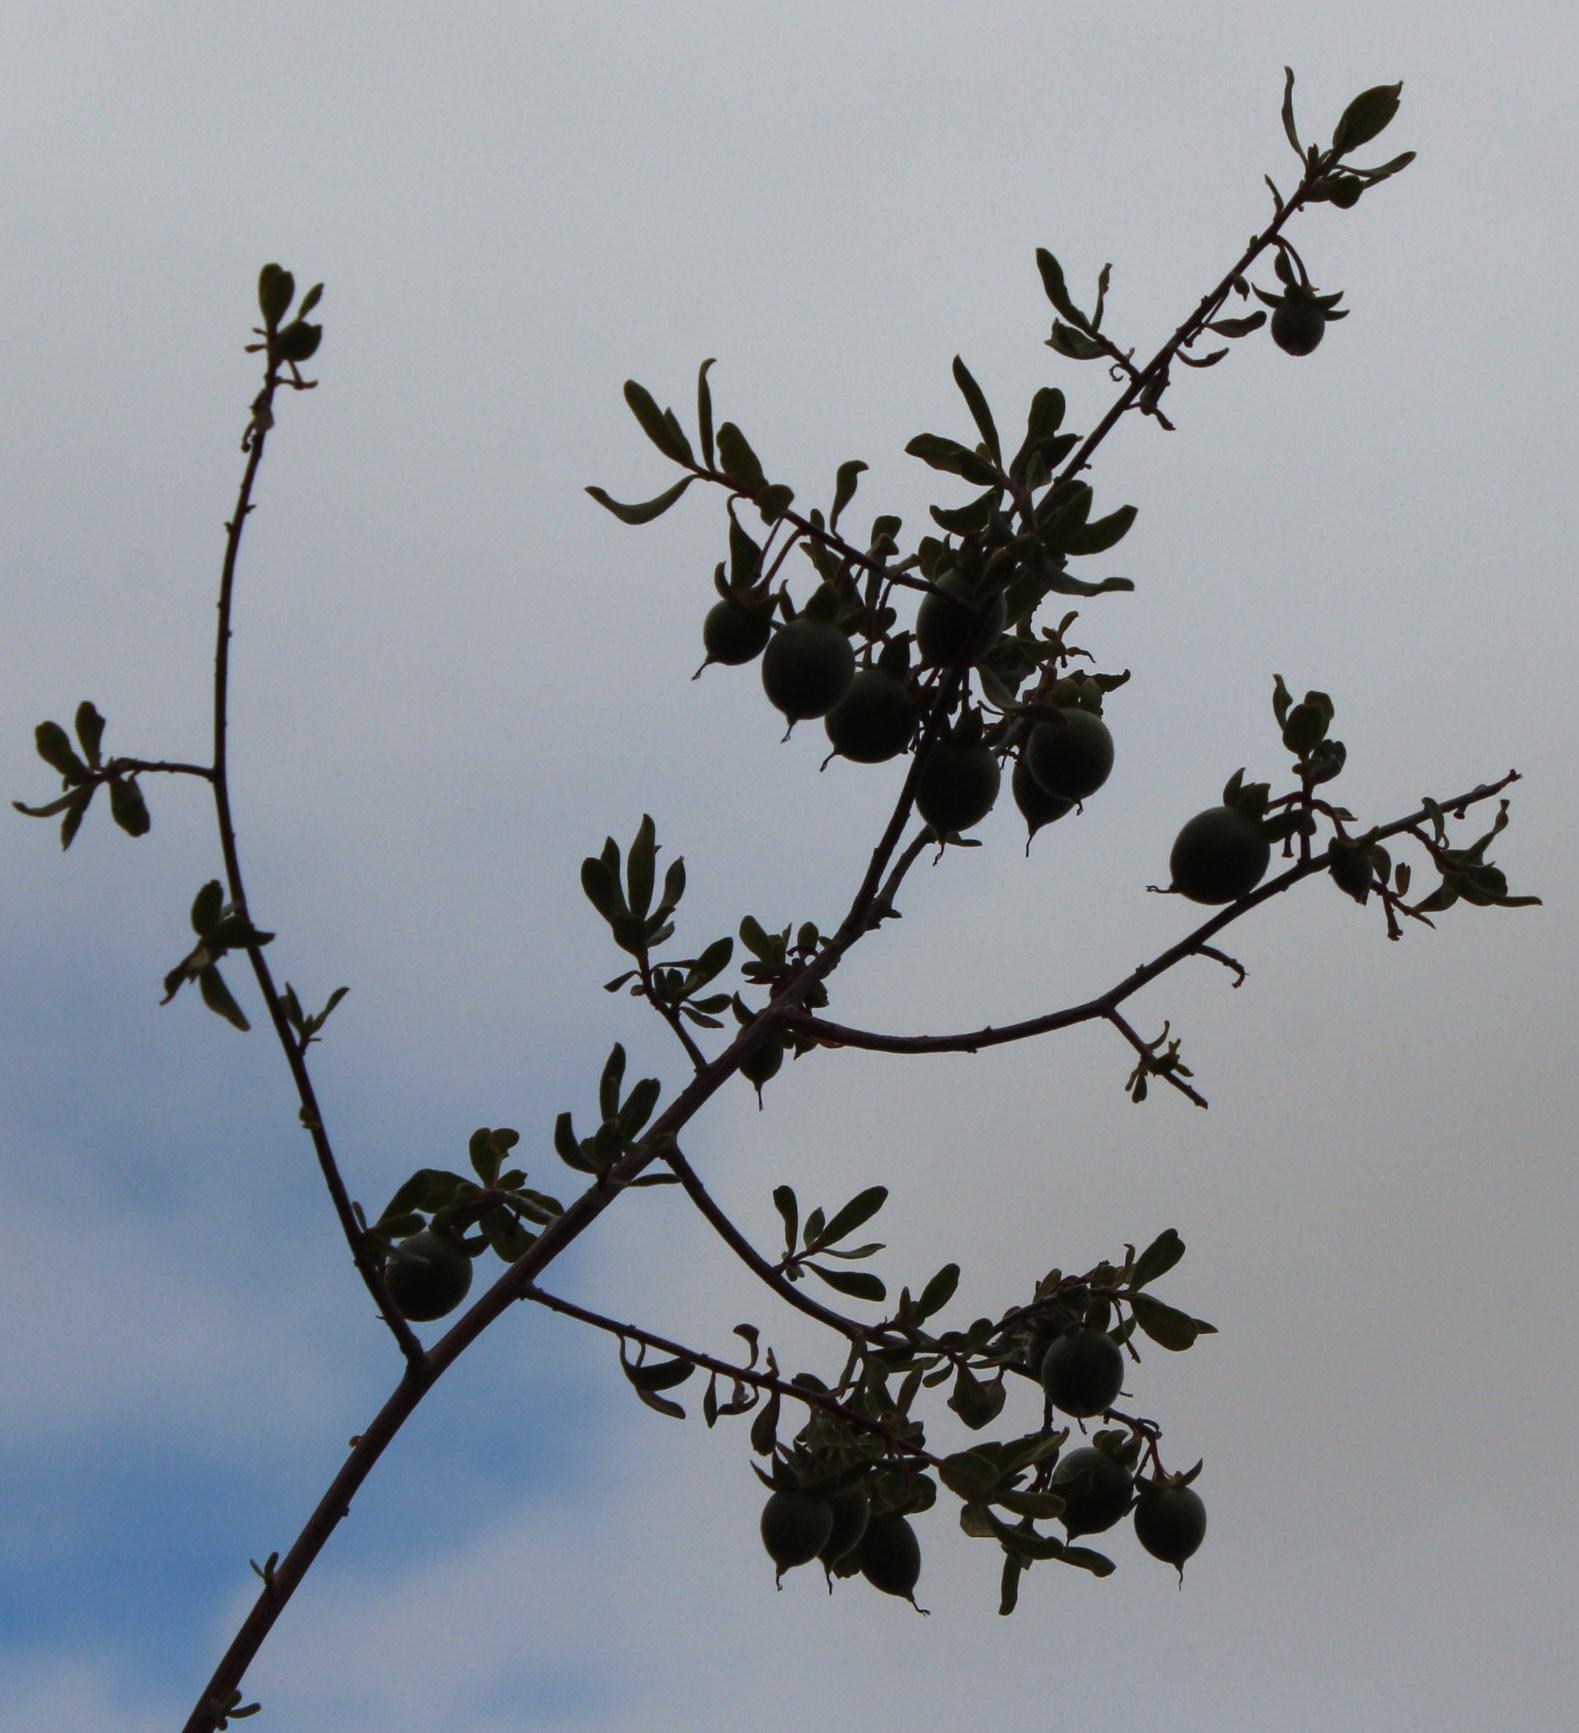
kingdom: Plantae
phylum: Tracheophyta
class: Magnoliopsida
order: Ericales
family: Ebenaceae
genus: Diospyros
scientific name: Diospyros ramulosa
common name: Namaqua fire-sticks
